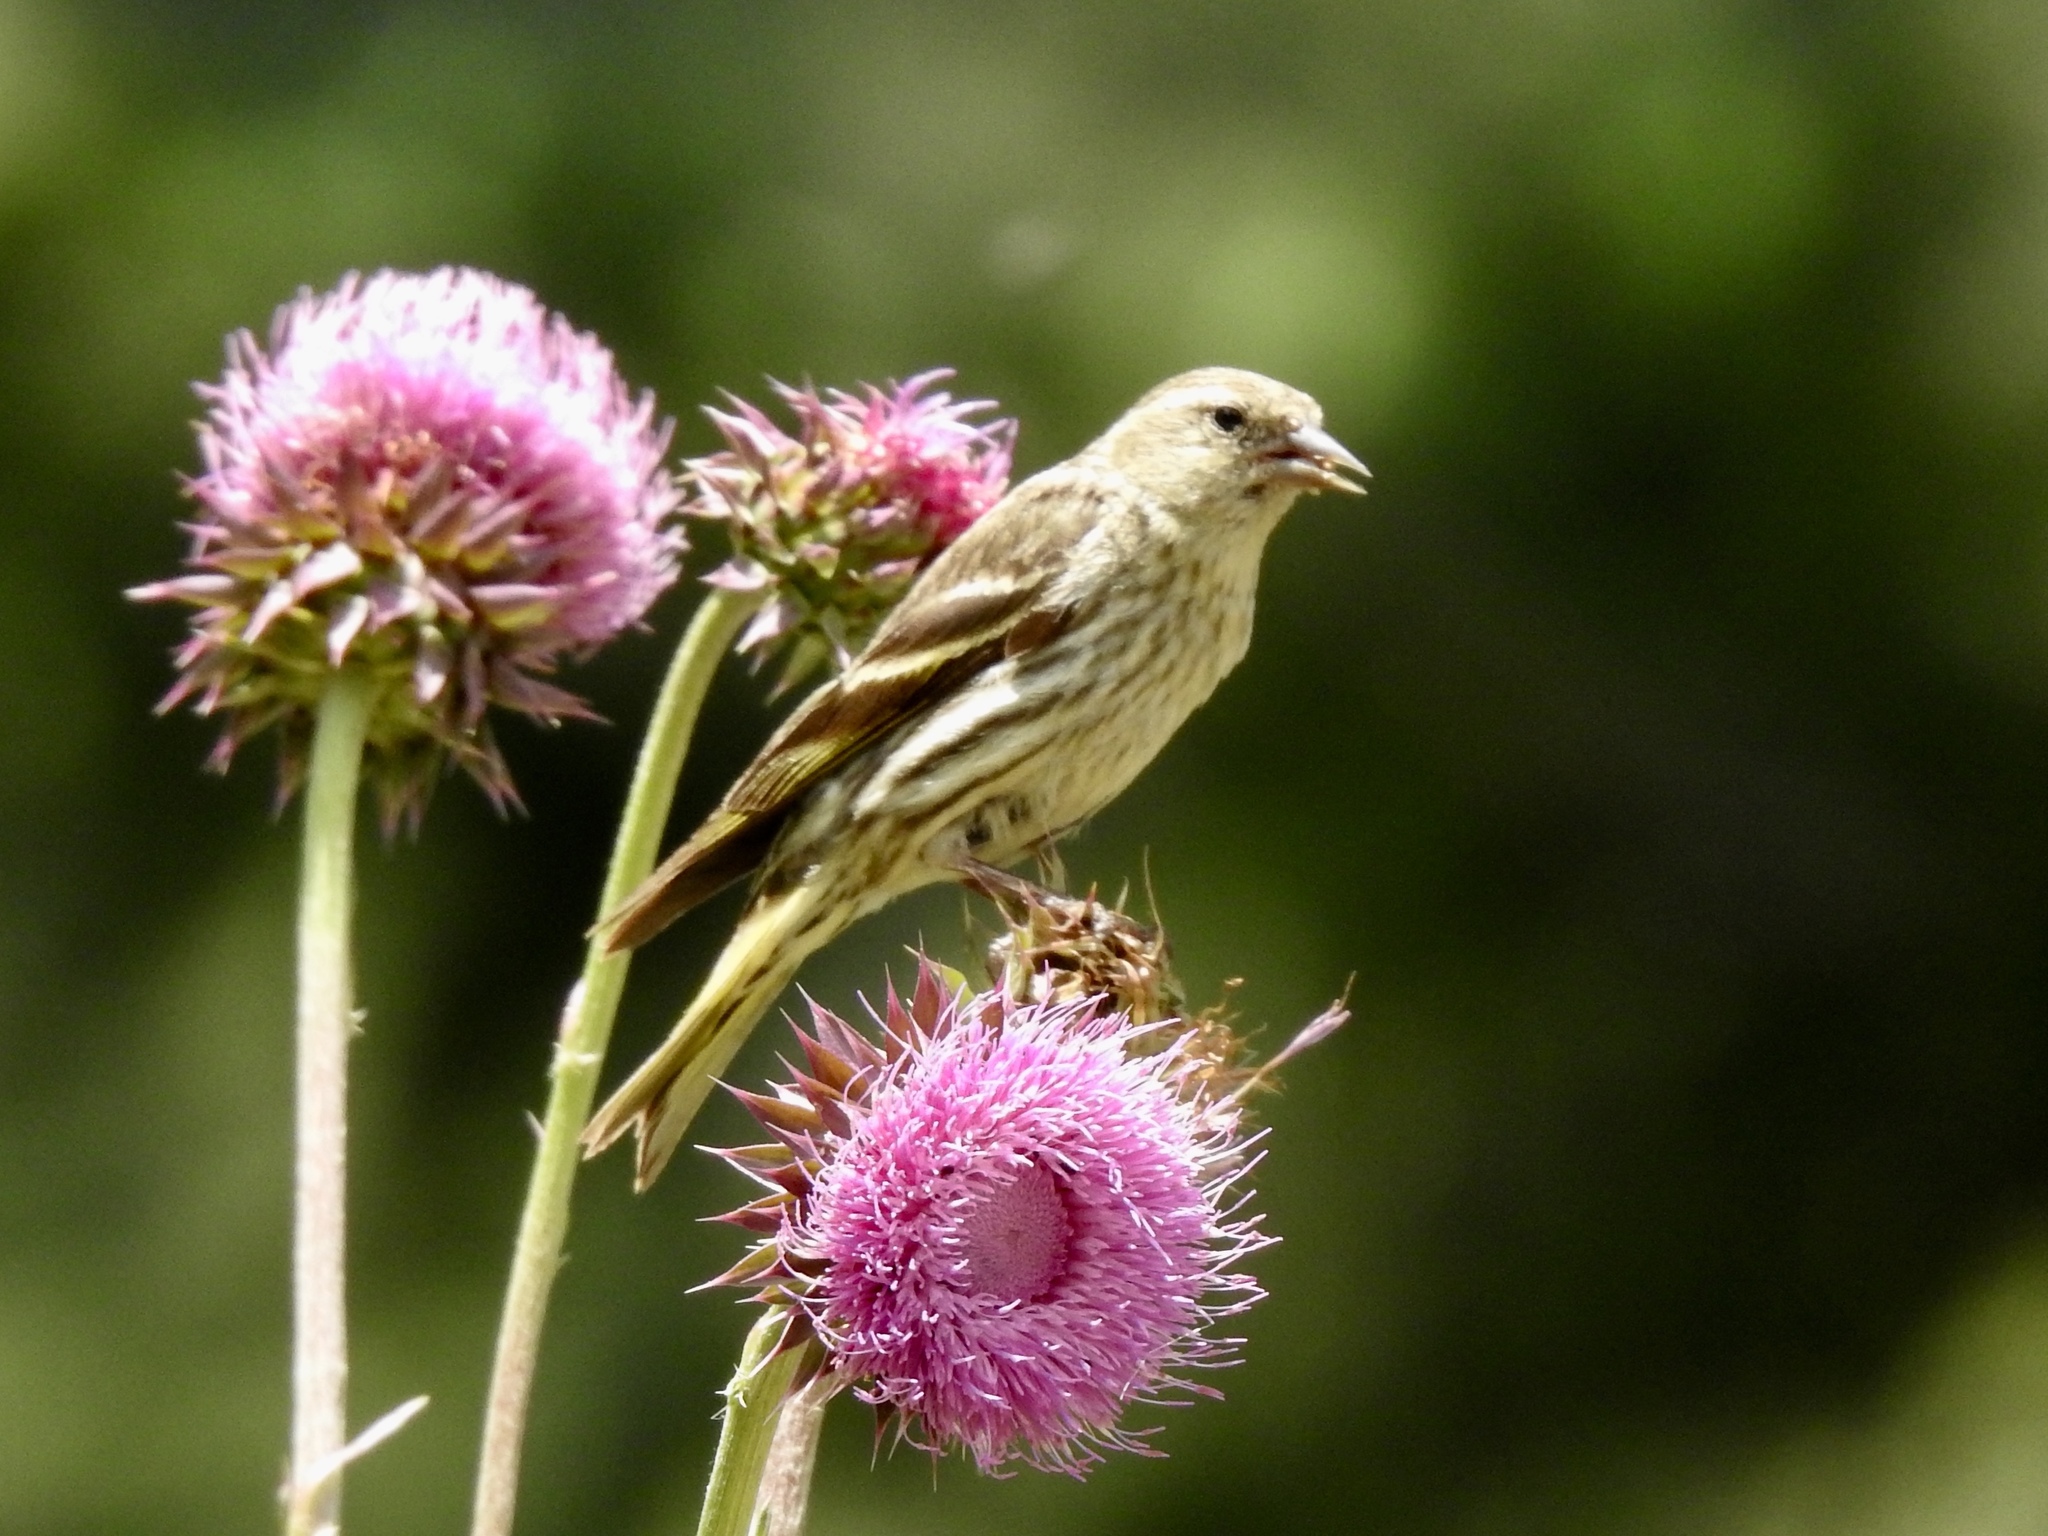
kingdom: Animalia
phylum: Chordata
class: Aves
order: Passeriformes
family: Fringillidae
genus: Spinus
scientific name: Spinus pinus
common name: Pine siskin
